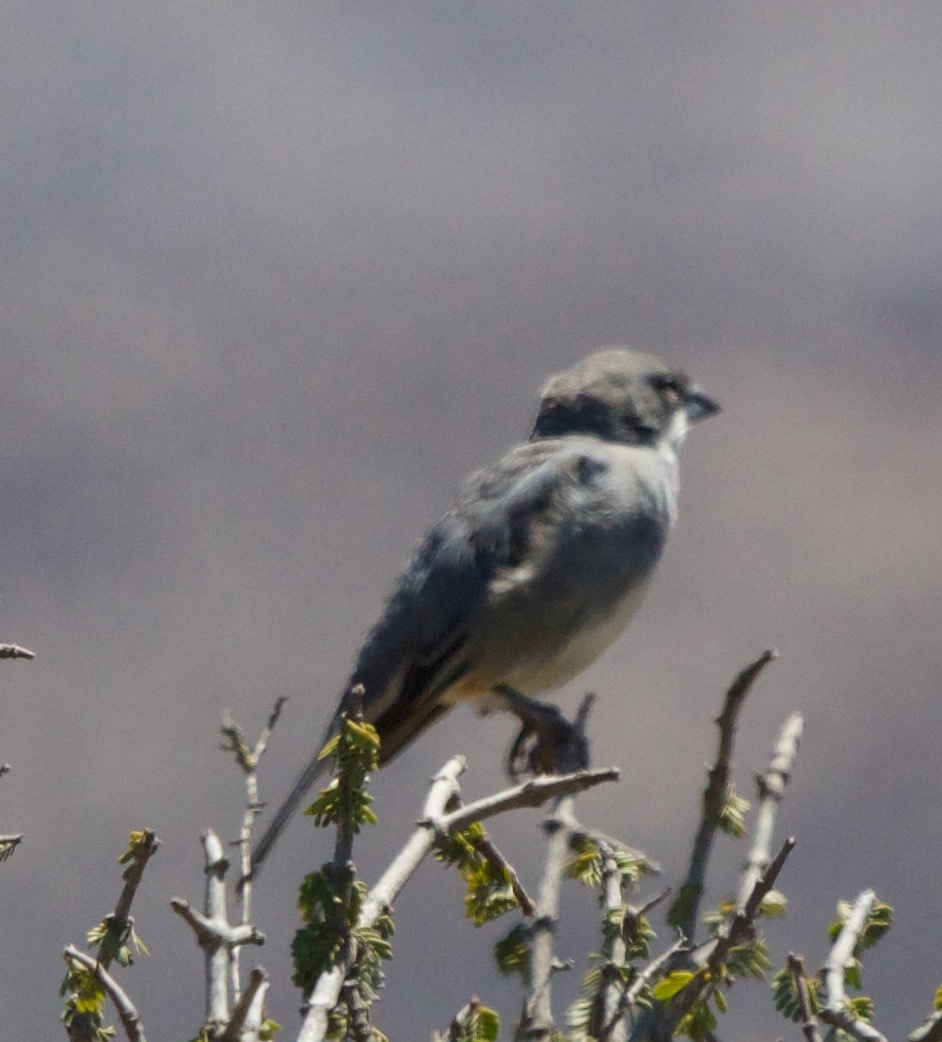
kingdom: Animalia
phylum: Chordata
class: Aves
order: Passeriformes
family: Thraupidae
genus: Diuca
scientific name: Diuca diuca
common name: Common diuca finch
